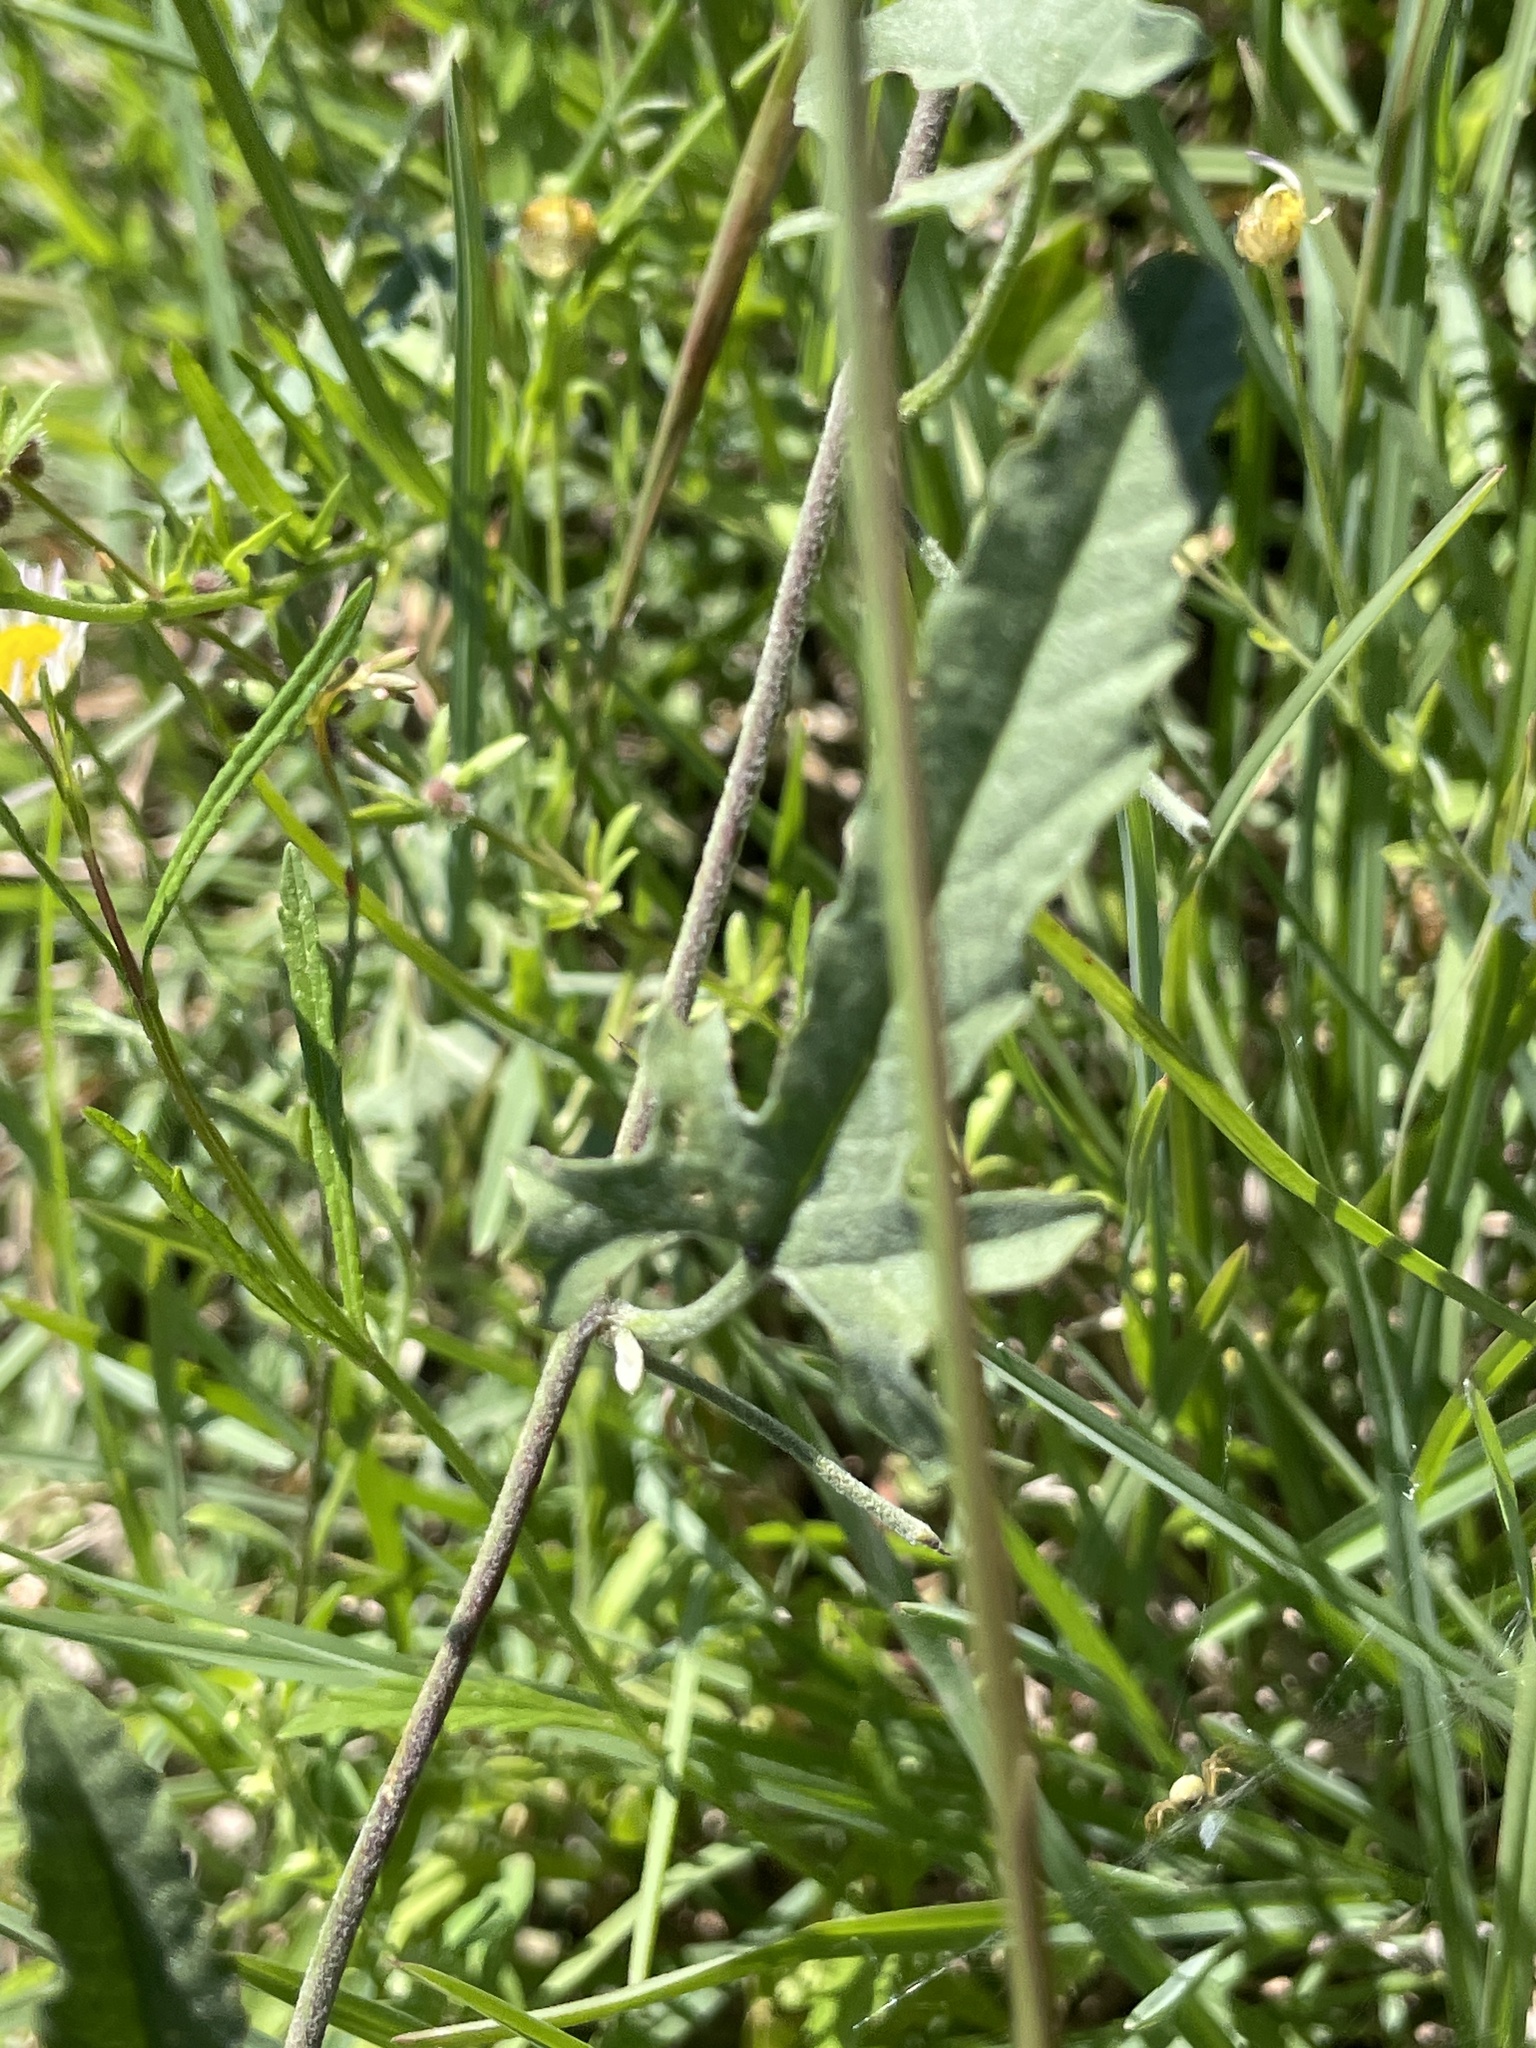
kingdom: Plantae
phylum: Tracheophyta
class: Magnoliopsida
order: Solanales
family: Convolvulaceae
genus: Convolvulus
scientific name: Convolvulus equitans
